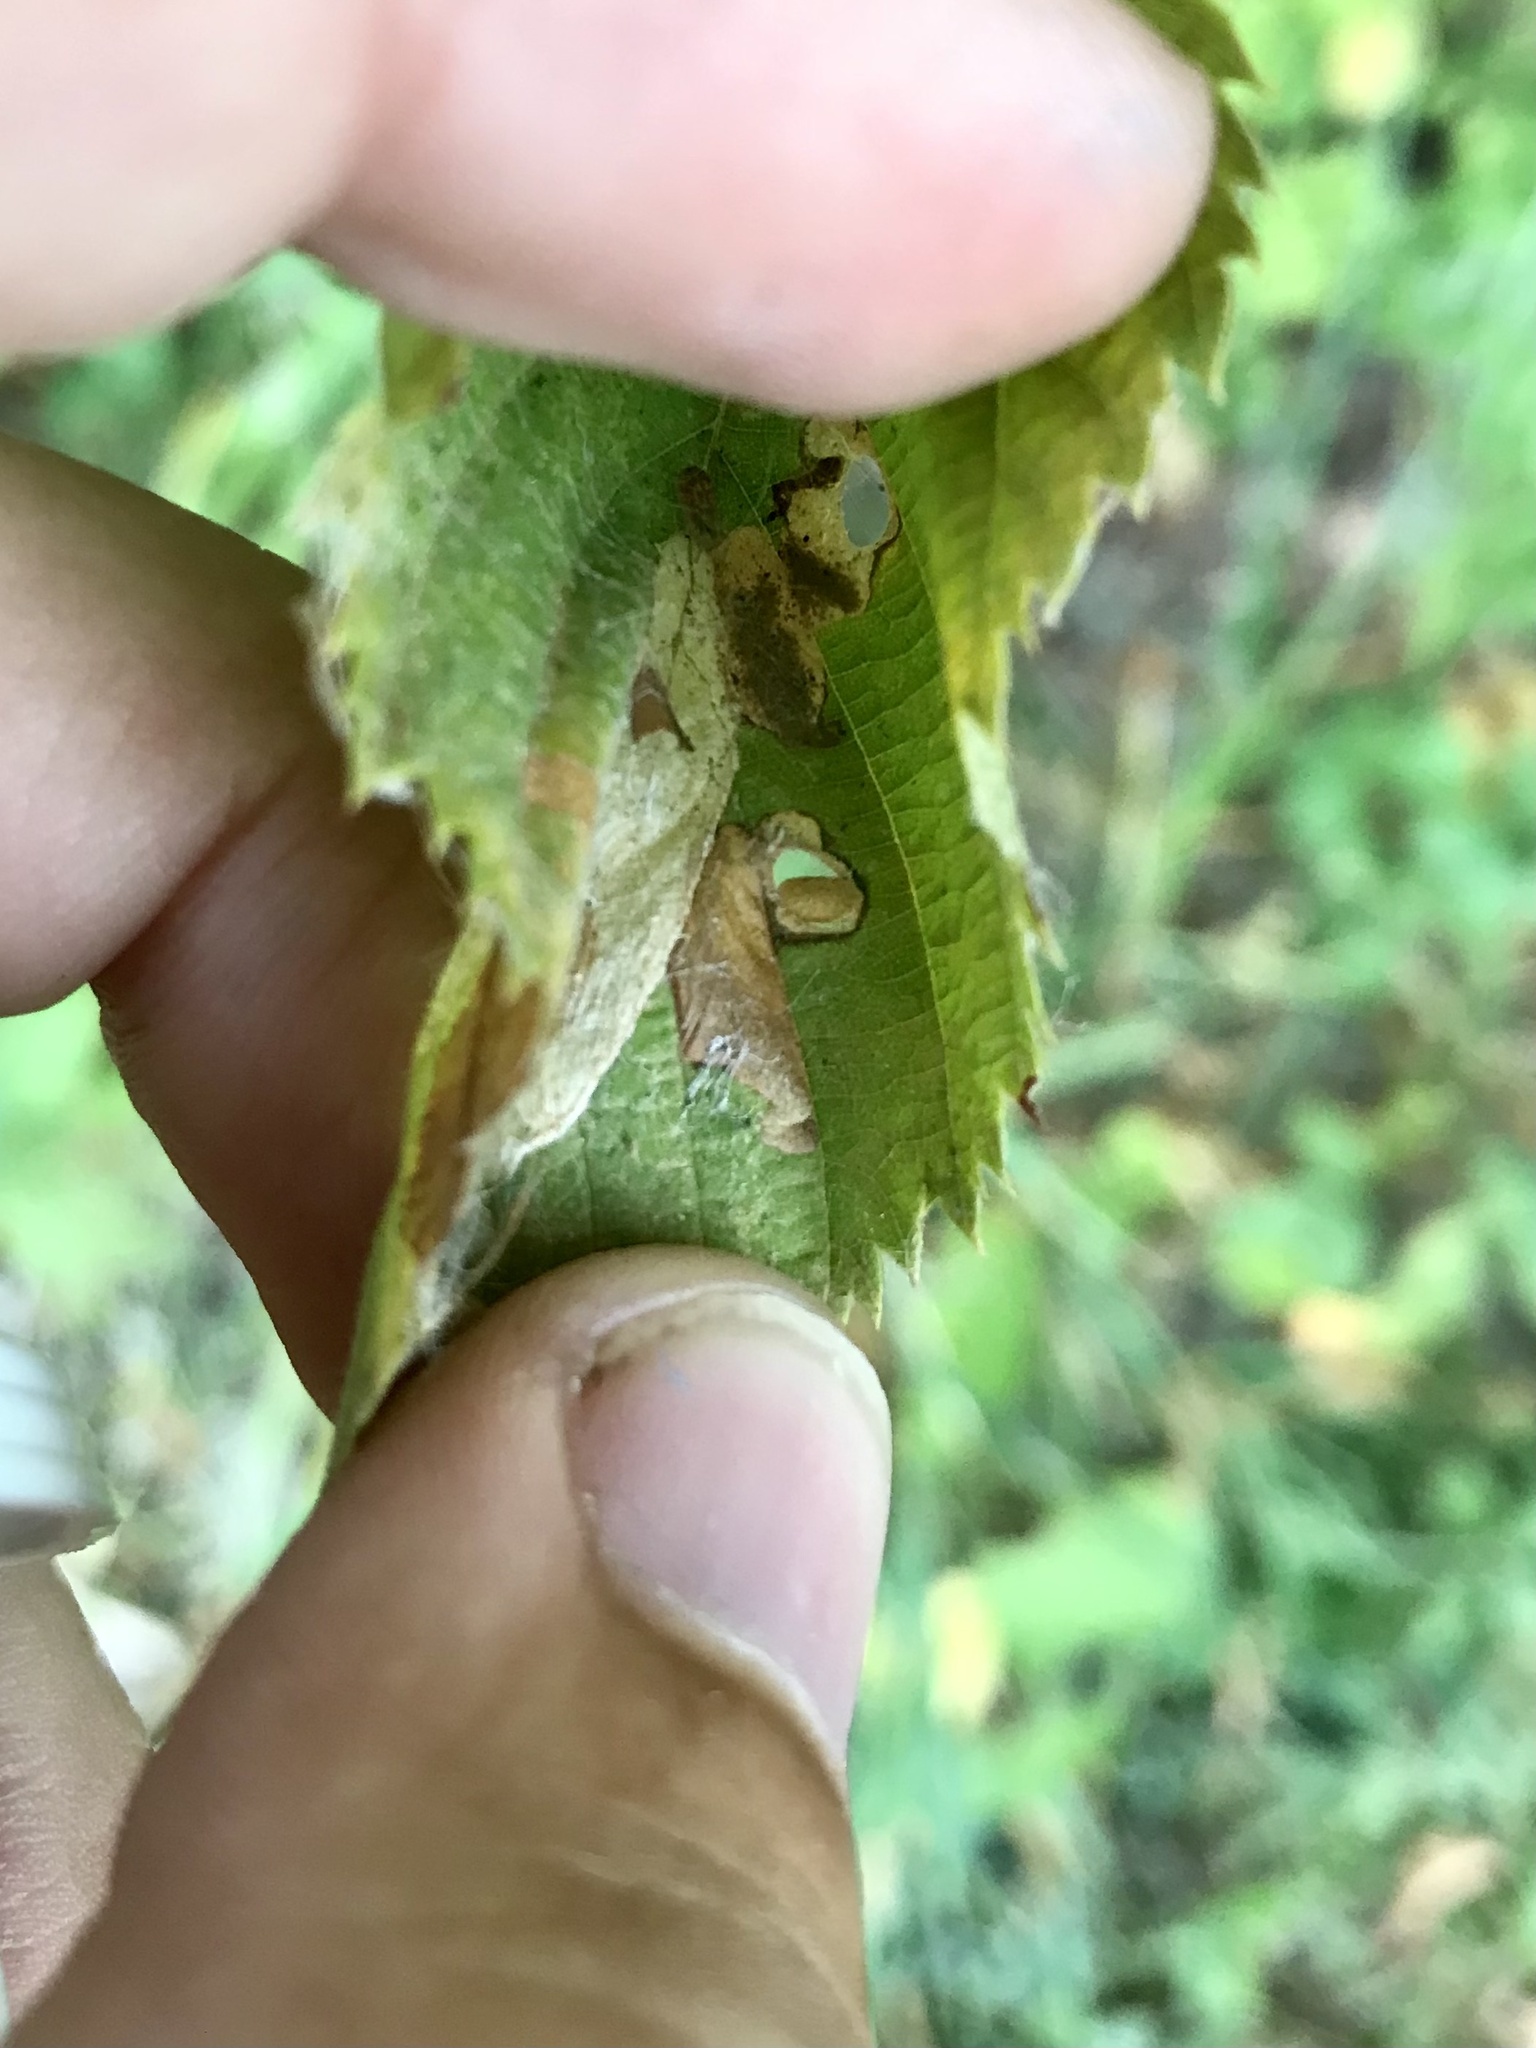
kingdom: Animalia
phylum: Arthropoda
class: Insecta
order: Lepidoptera
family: Heliozelidae
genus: Coptodisca
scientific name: Coptodisca ostryaefoliella
